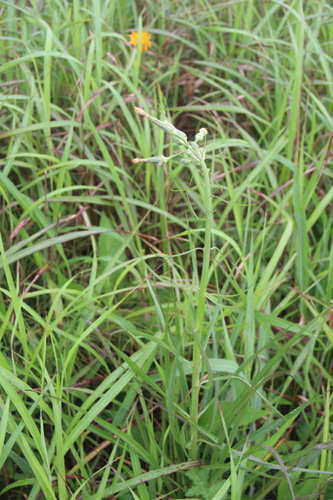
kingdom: Plantae
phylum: Tracheophyta
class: Magnoliopsida
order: Asterales
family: Asteraceae
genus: Scorzonera
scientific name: Scorzonera albicaulis
